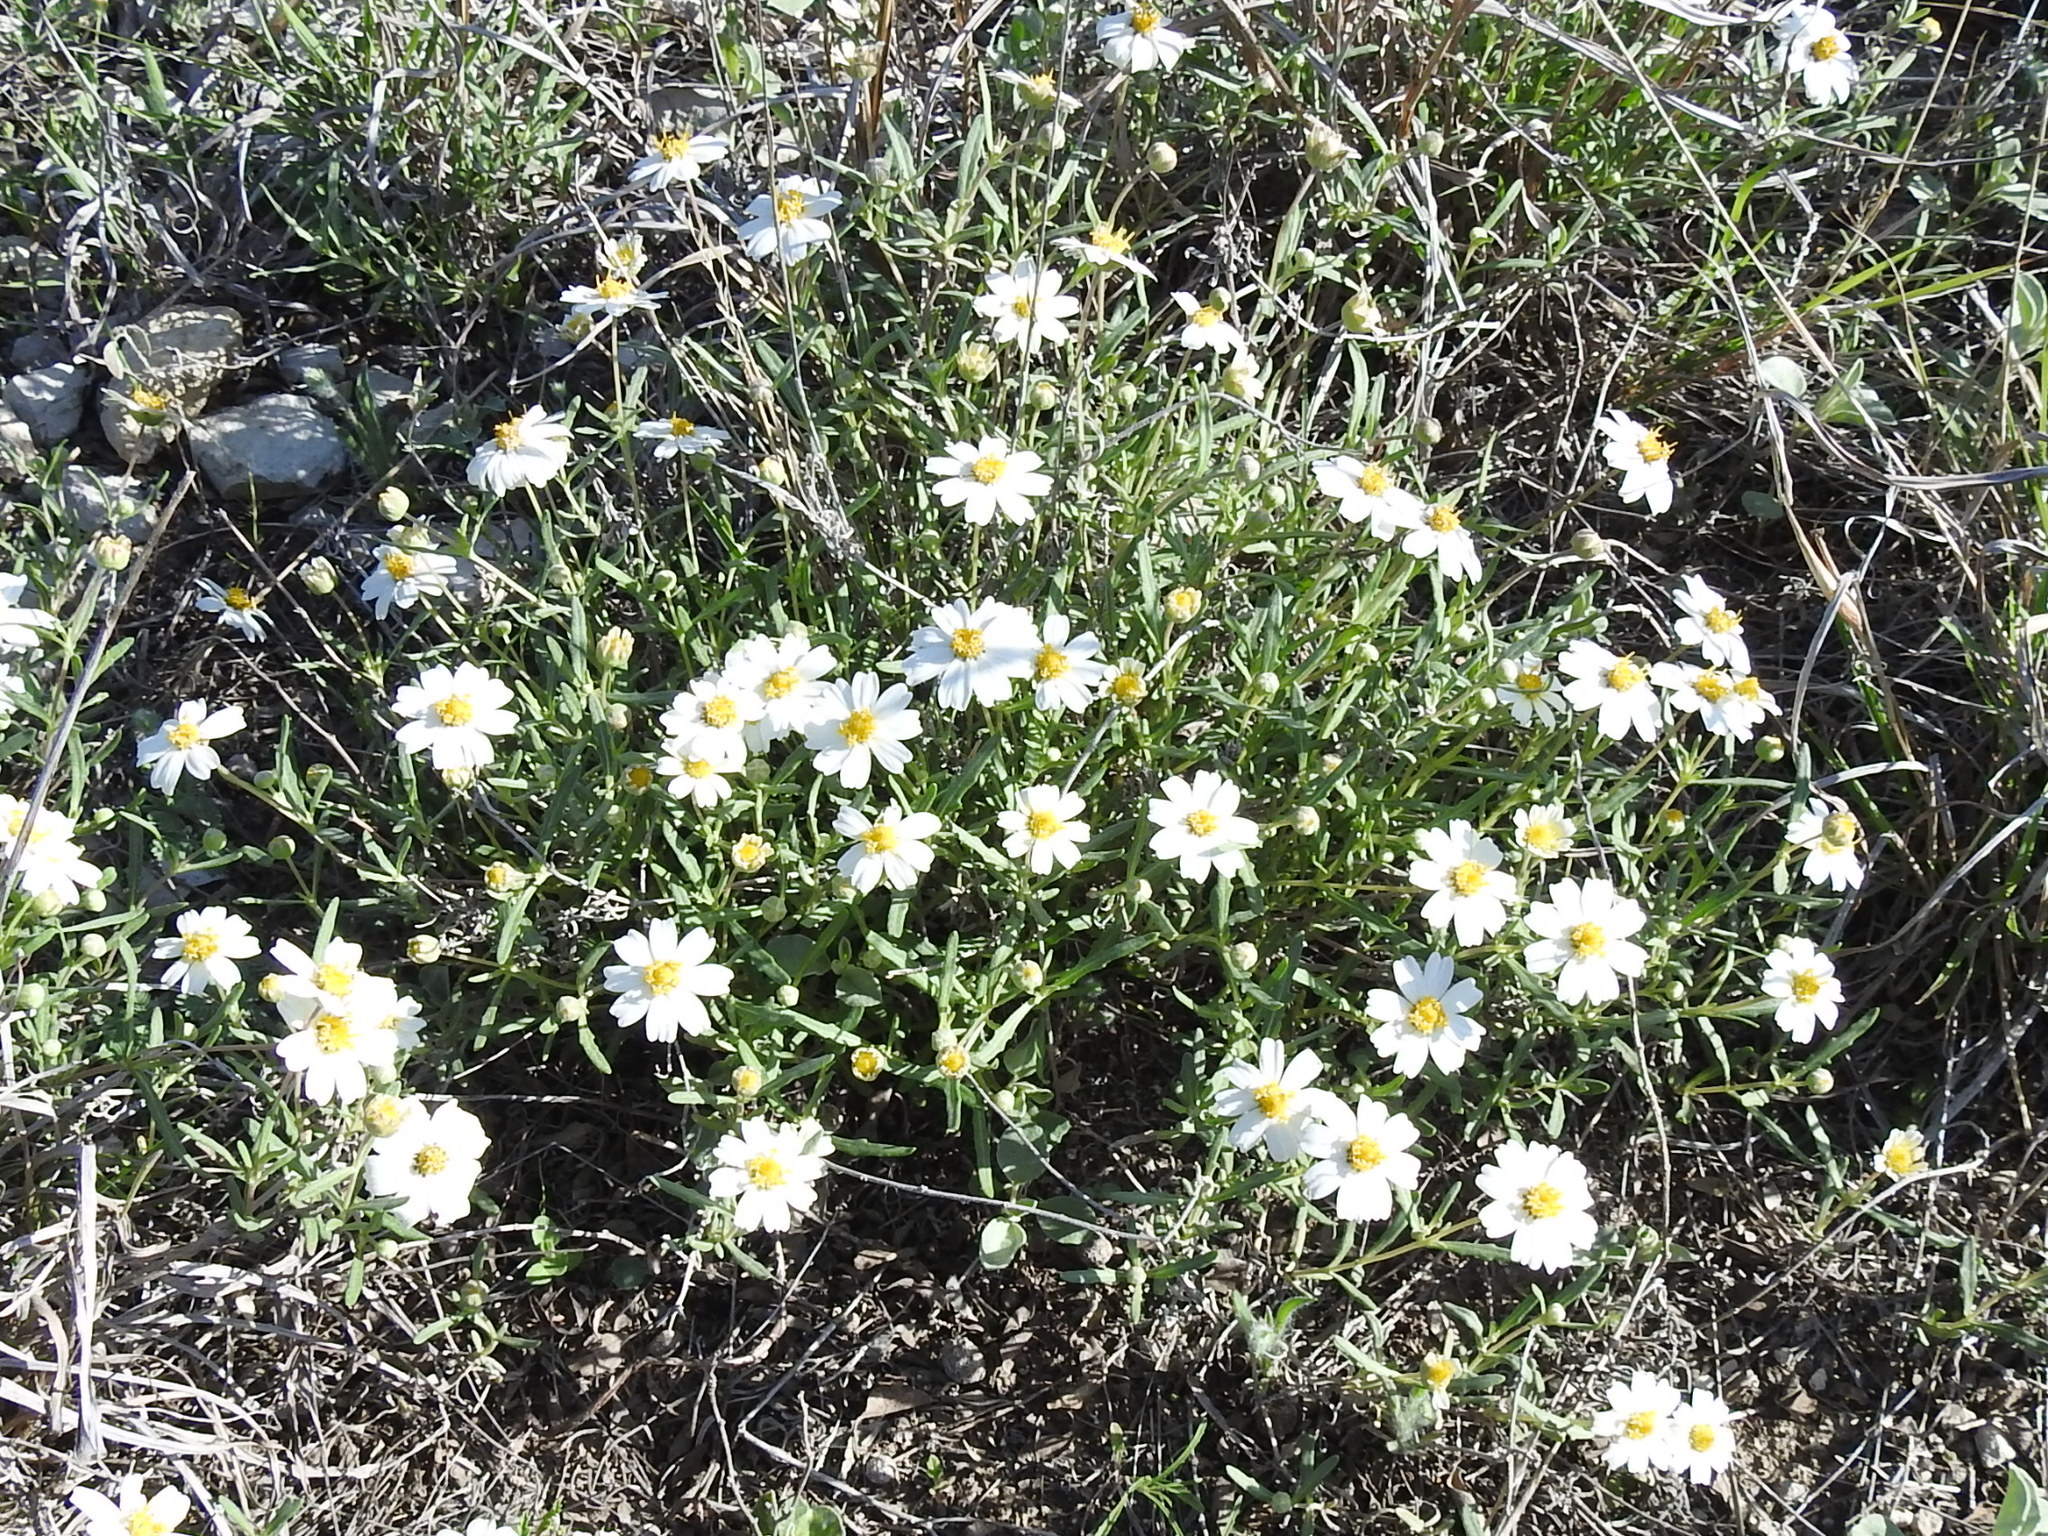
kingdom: Plantae
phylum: Tracheophyta
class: Magnoliopsida
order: Asterales
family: Asteraceae
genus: Melampodium
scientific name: Melampodium leucanthum
